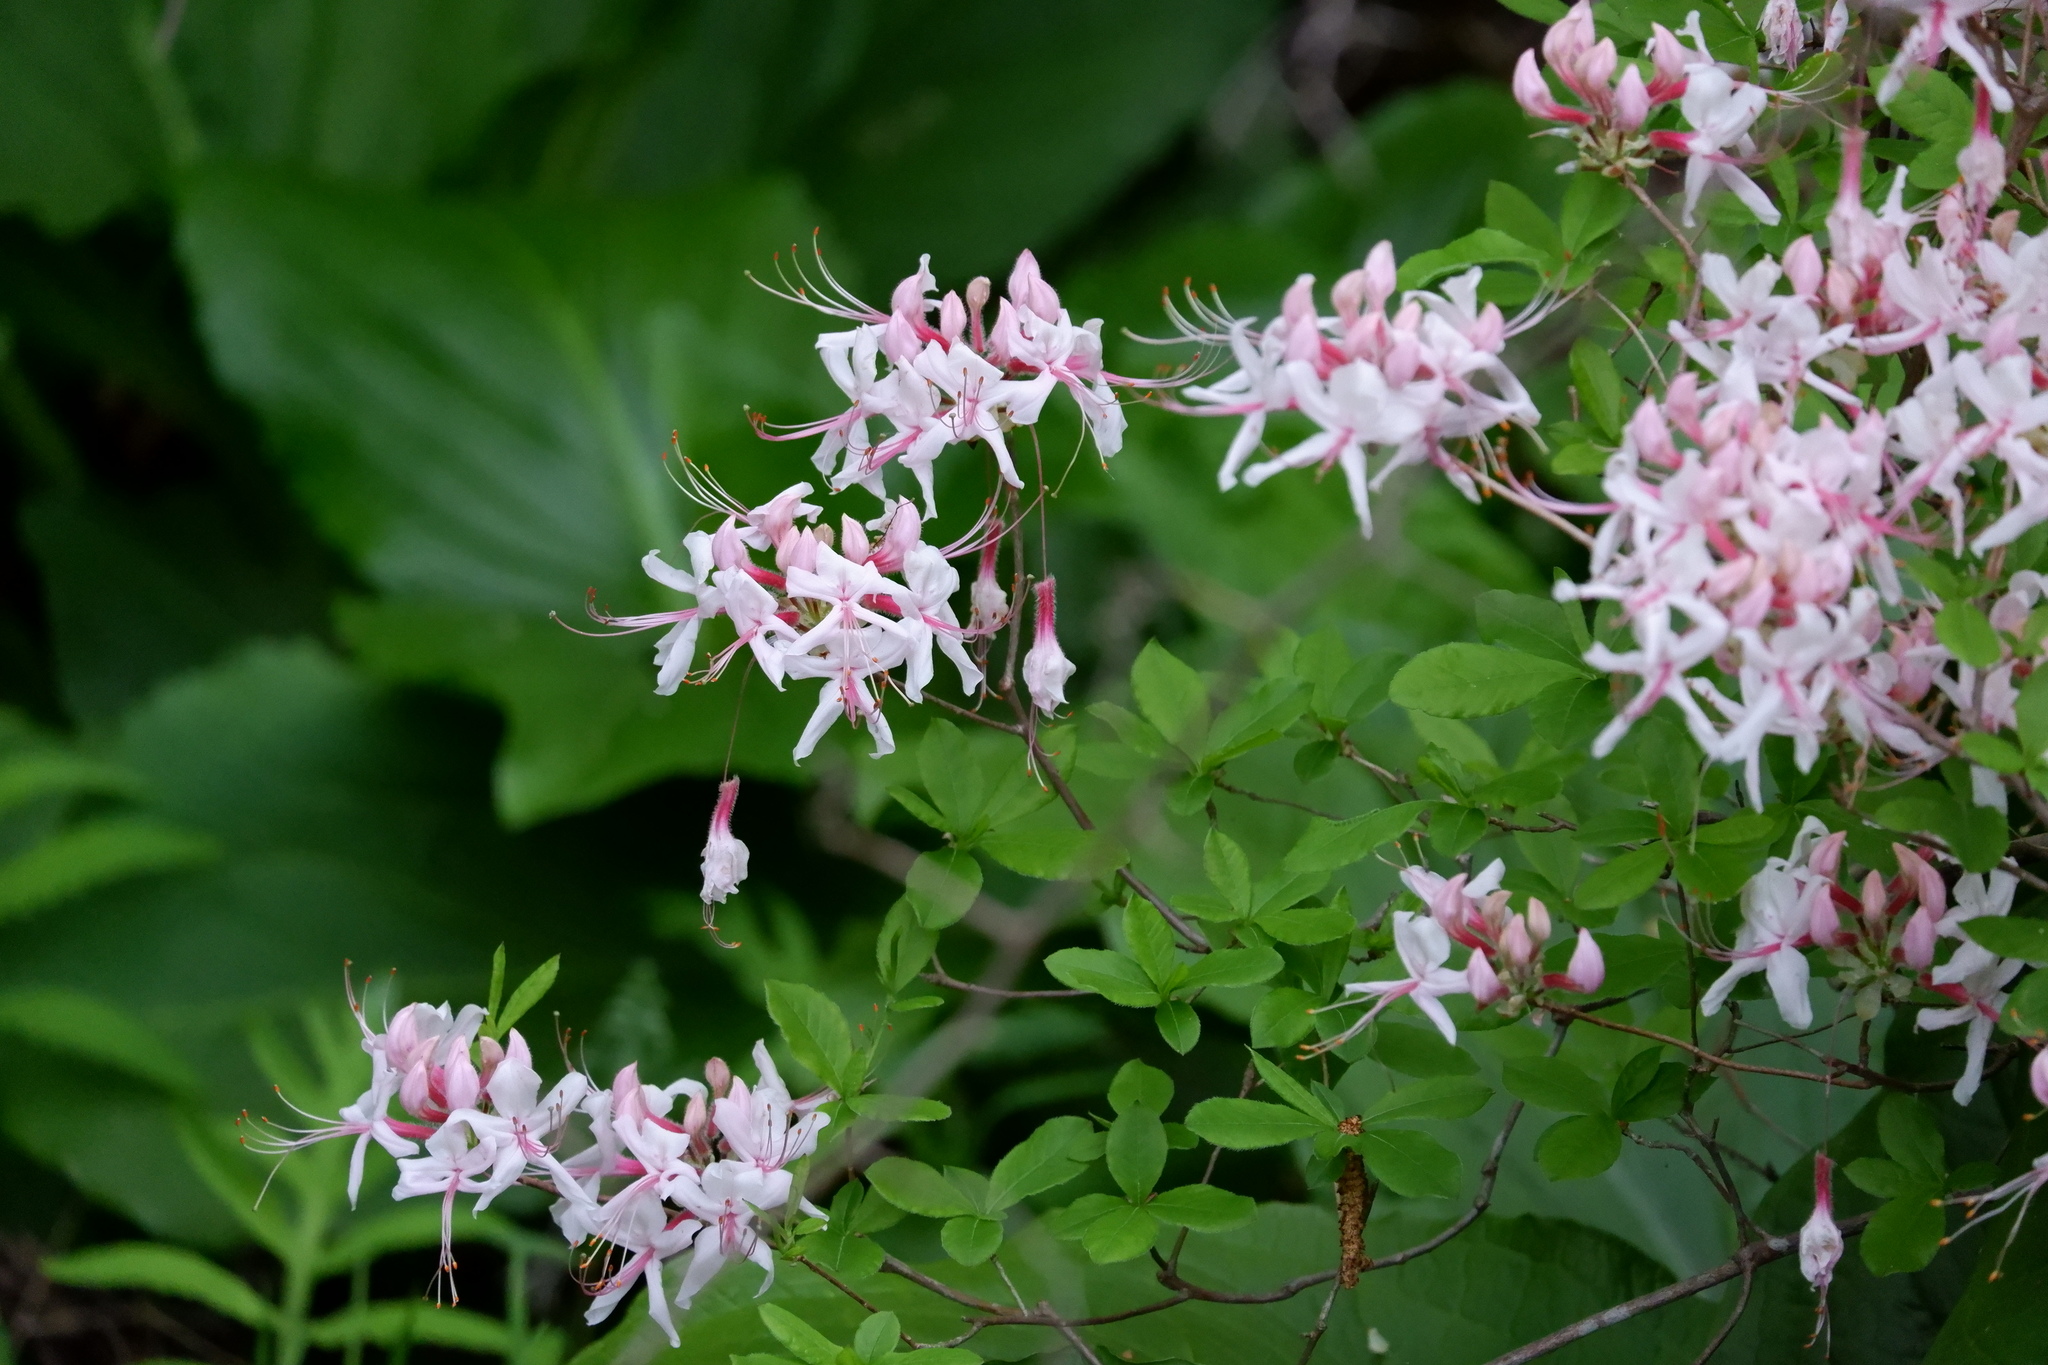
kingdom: Plantae
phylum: Tracheophyta
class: Magnoliopsida
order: Ericales
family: Ericaceae
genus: Rhododendron
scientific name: Rhododendron periclymenoides
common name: Election-pink
